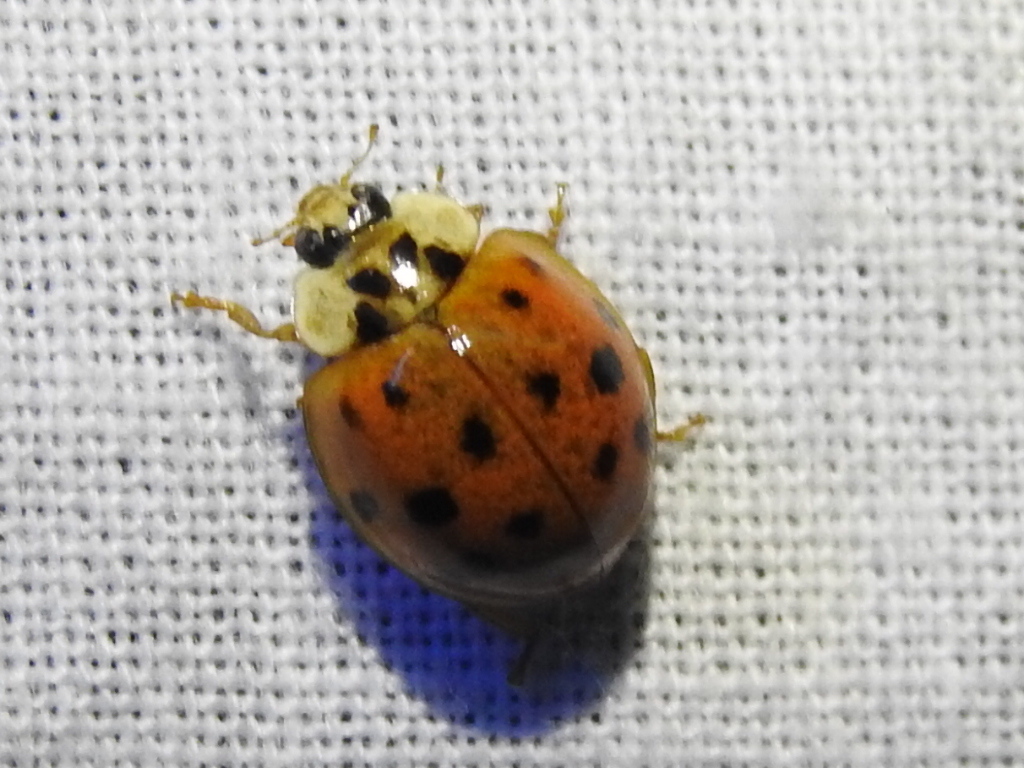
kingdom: Animalia
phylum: Arthropoda
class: Insecta
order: Coleoptera
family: Coccinellidae
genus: Harmonia
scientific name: Harmonia axyridis
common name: Harlequin ladybird
